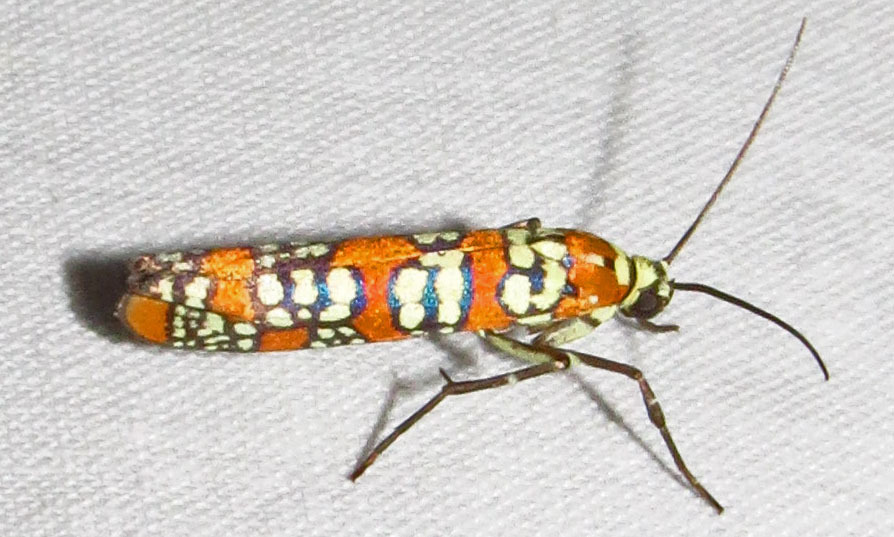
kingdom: Animalia
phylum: Arthropoda
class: Insecta
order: Lepidoptera
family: Attevidae
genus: Atteva
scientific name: Atteva punctella
